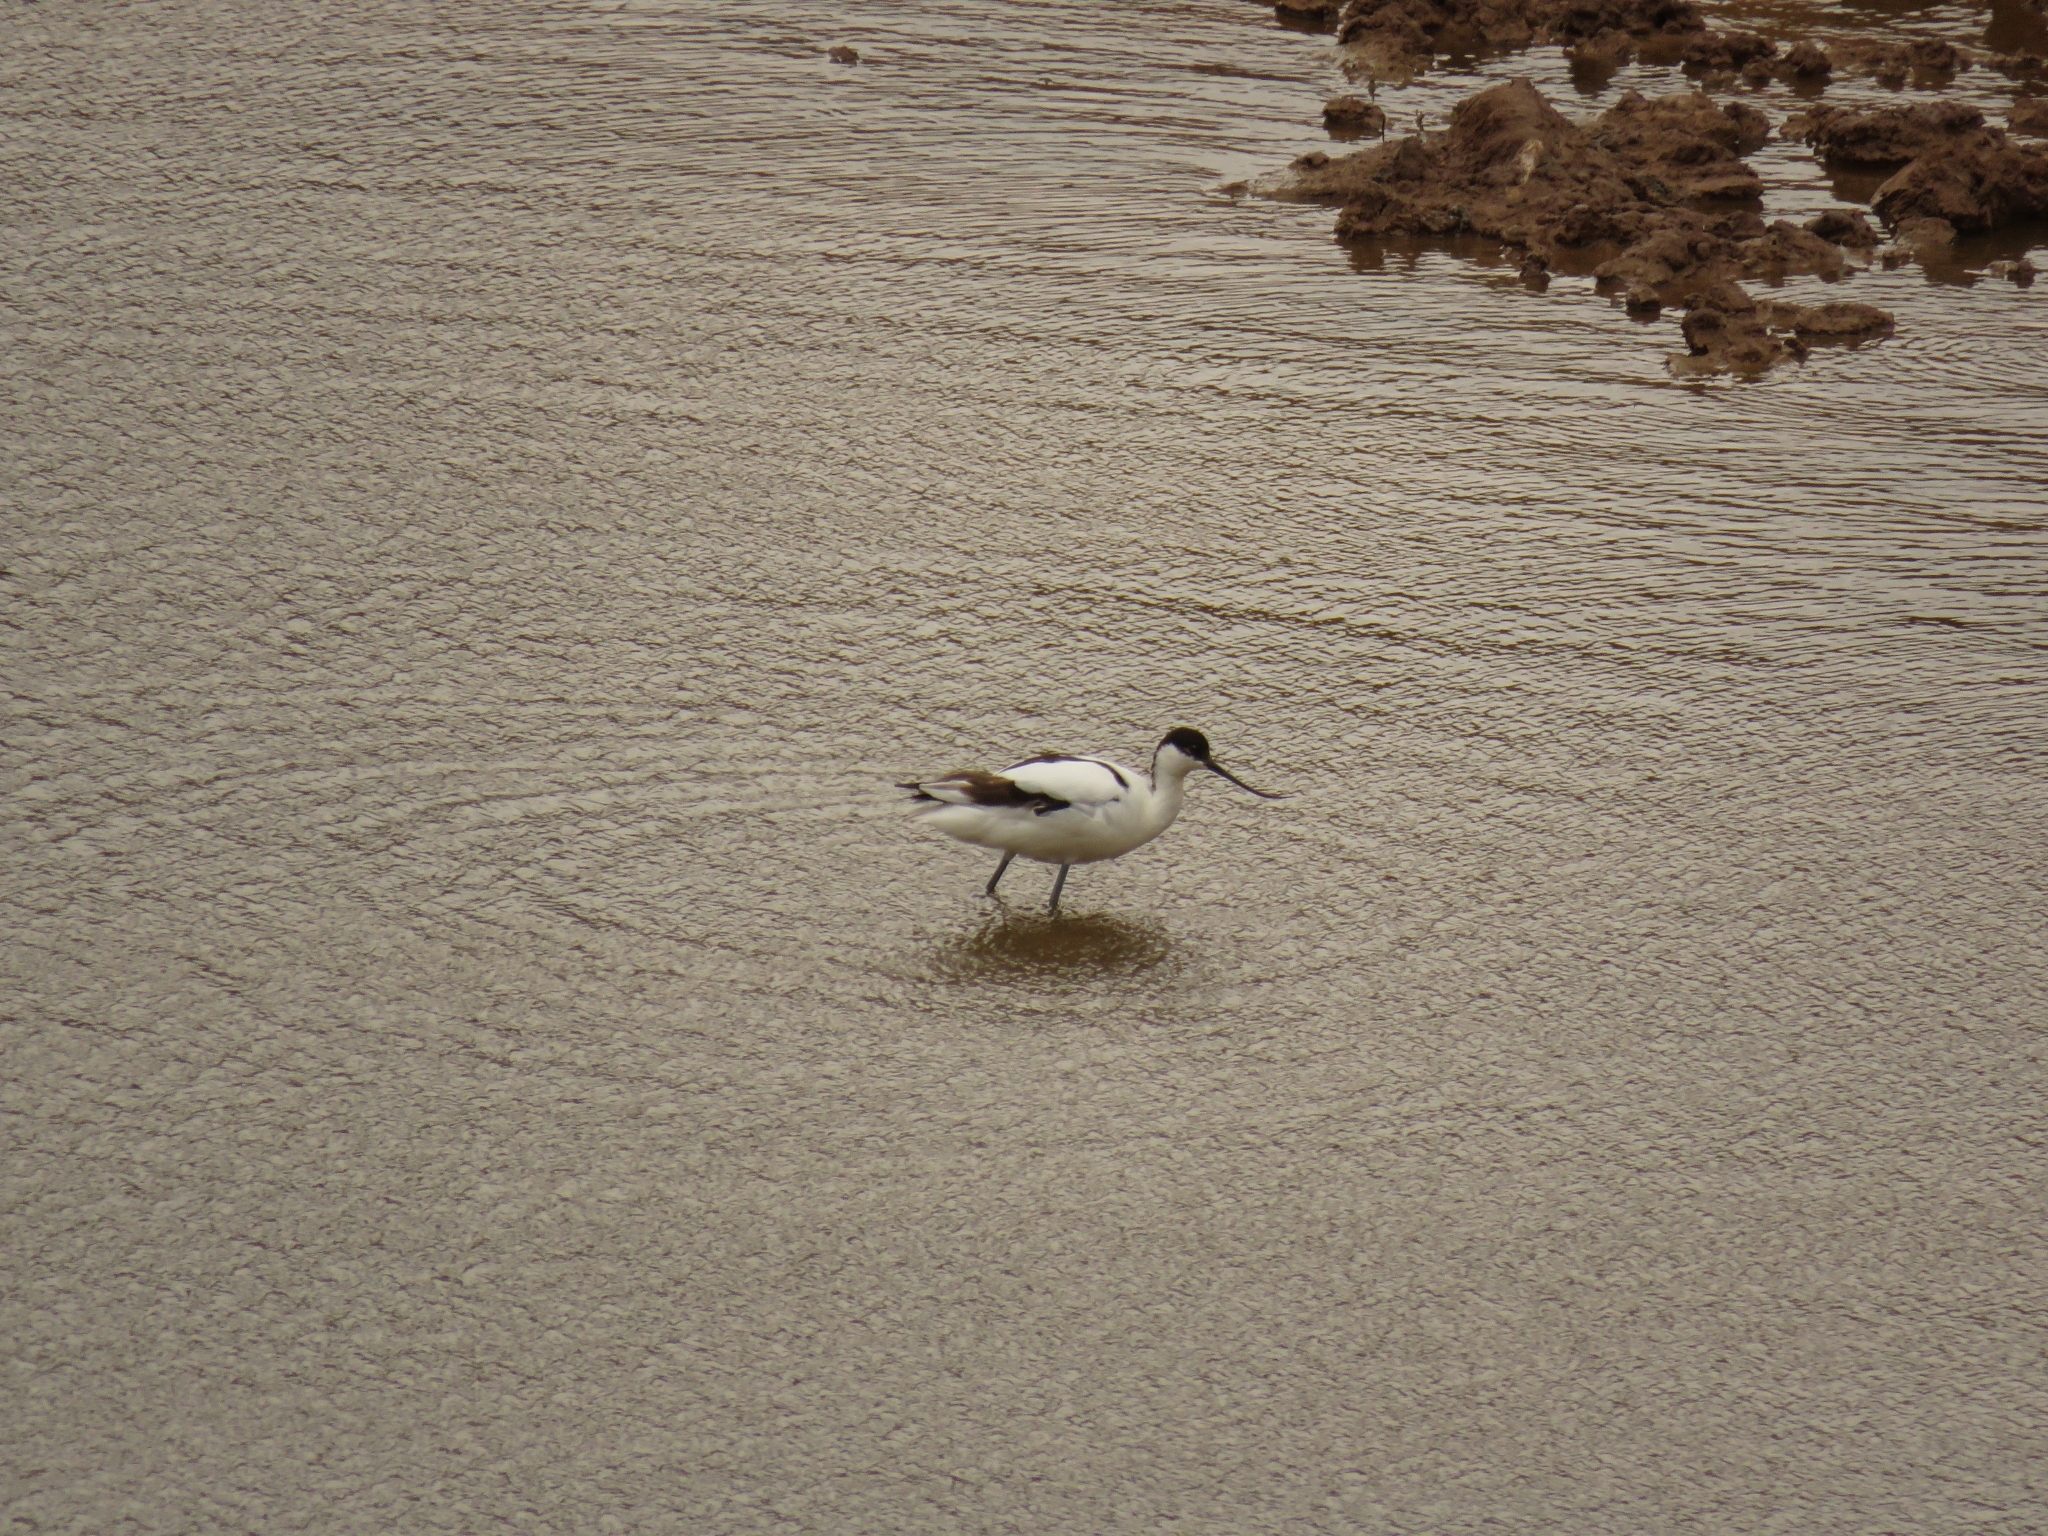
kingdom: Animalia
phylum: Chordata
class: Aves
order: Charadriiformes
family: Recurvirostridae
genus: Recurvirostra
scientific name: Recurvirostra avosetta
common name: Pied avocet
